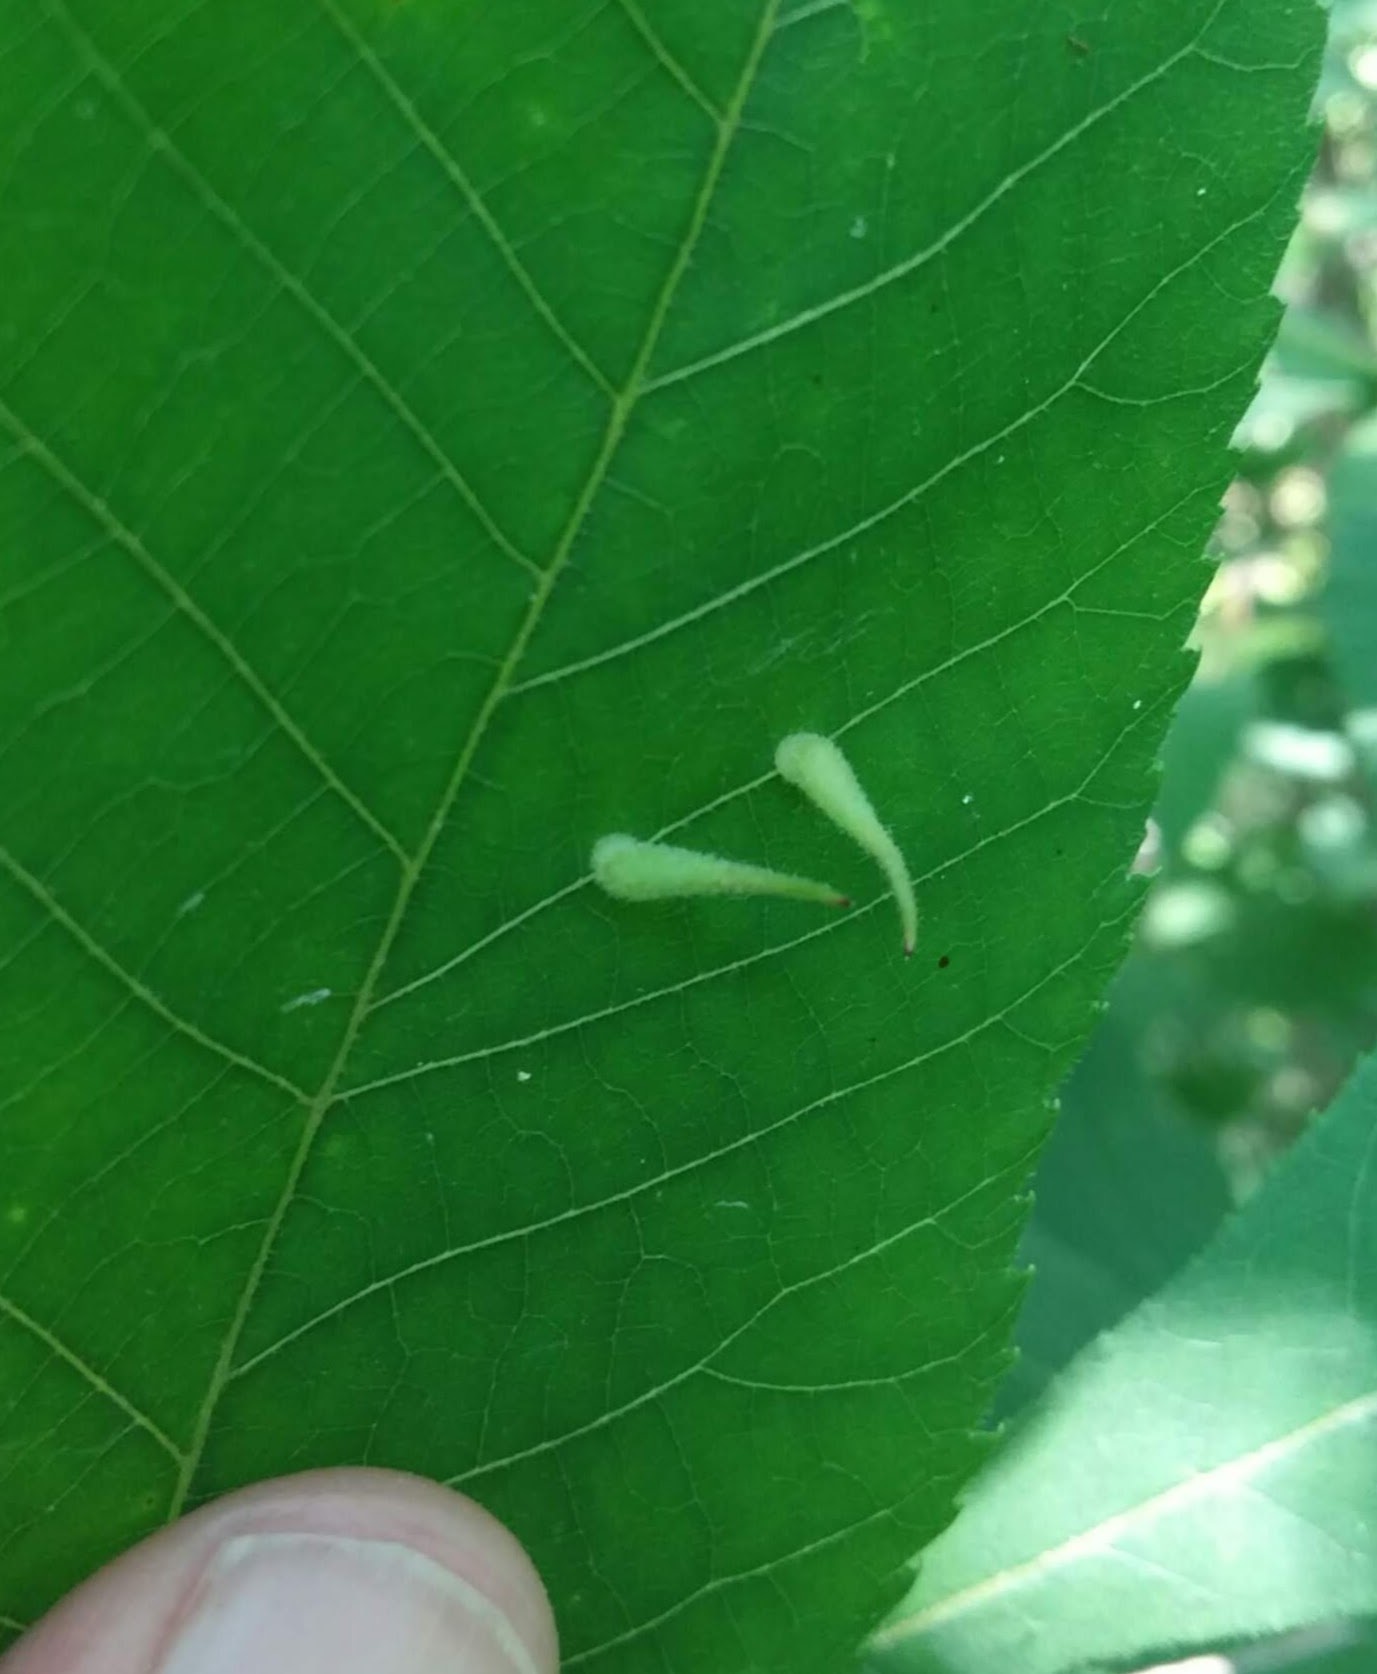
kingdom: Animalia
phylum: Arthropoda
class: Insecta
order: Diptera
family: Cecidomyiidae
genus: Caryomyia
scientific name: Caryomyia spinulosa
